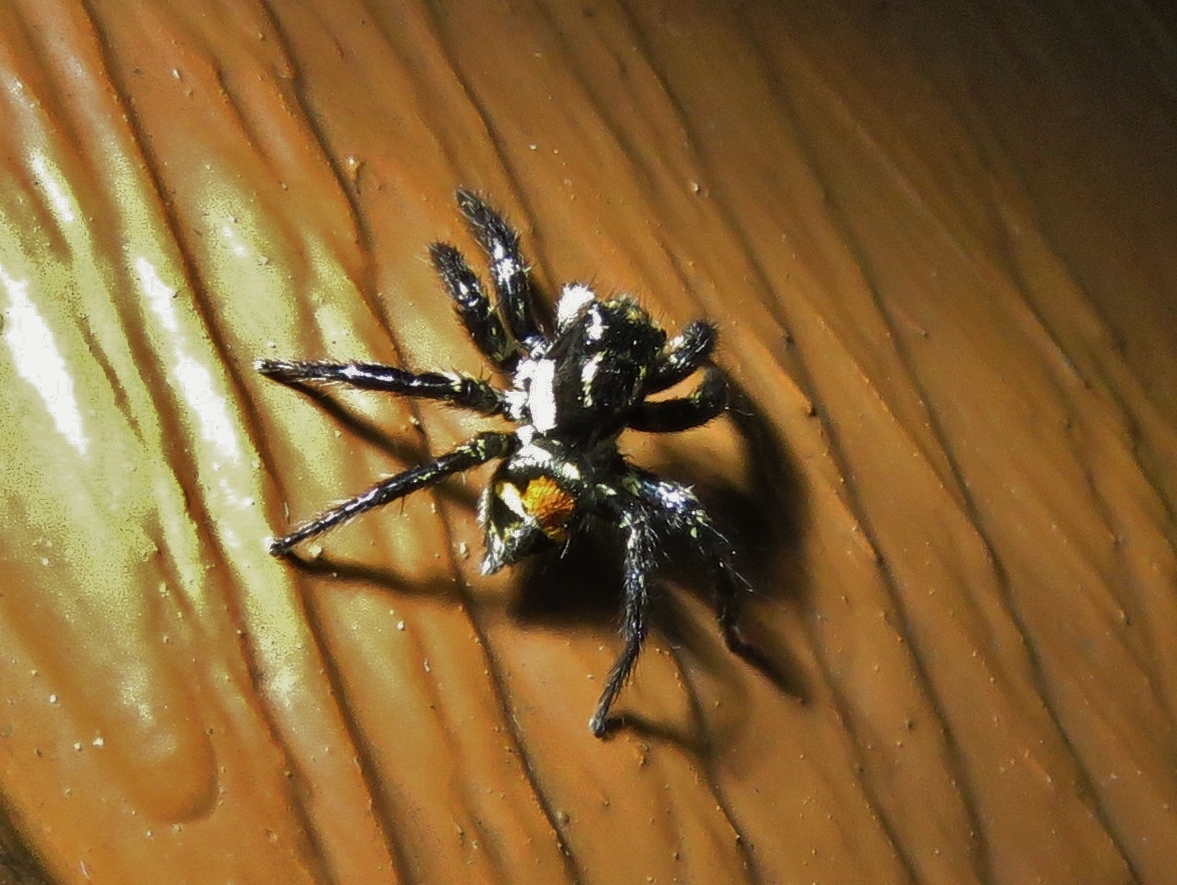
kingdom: Animalia
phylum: Arthropoda
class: Arachnida
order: Araneae
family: Salticidae
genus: Corythalia
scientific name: Corythalia opima
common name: Jumping spiders
